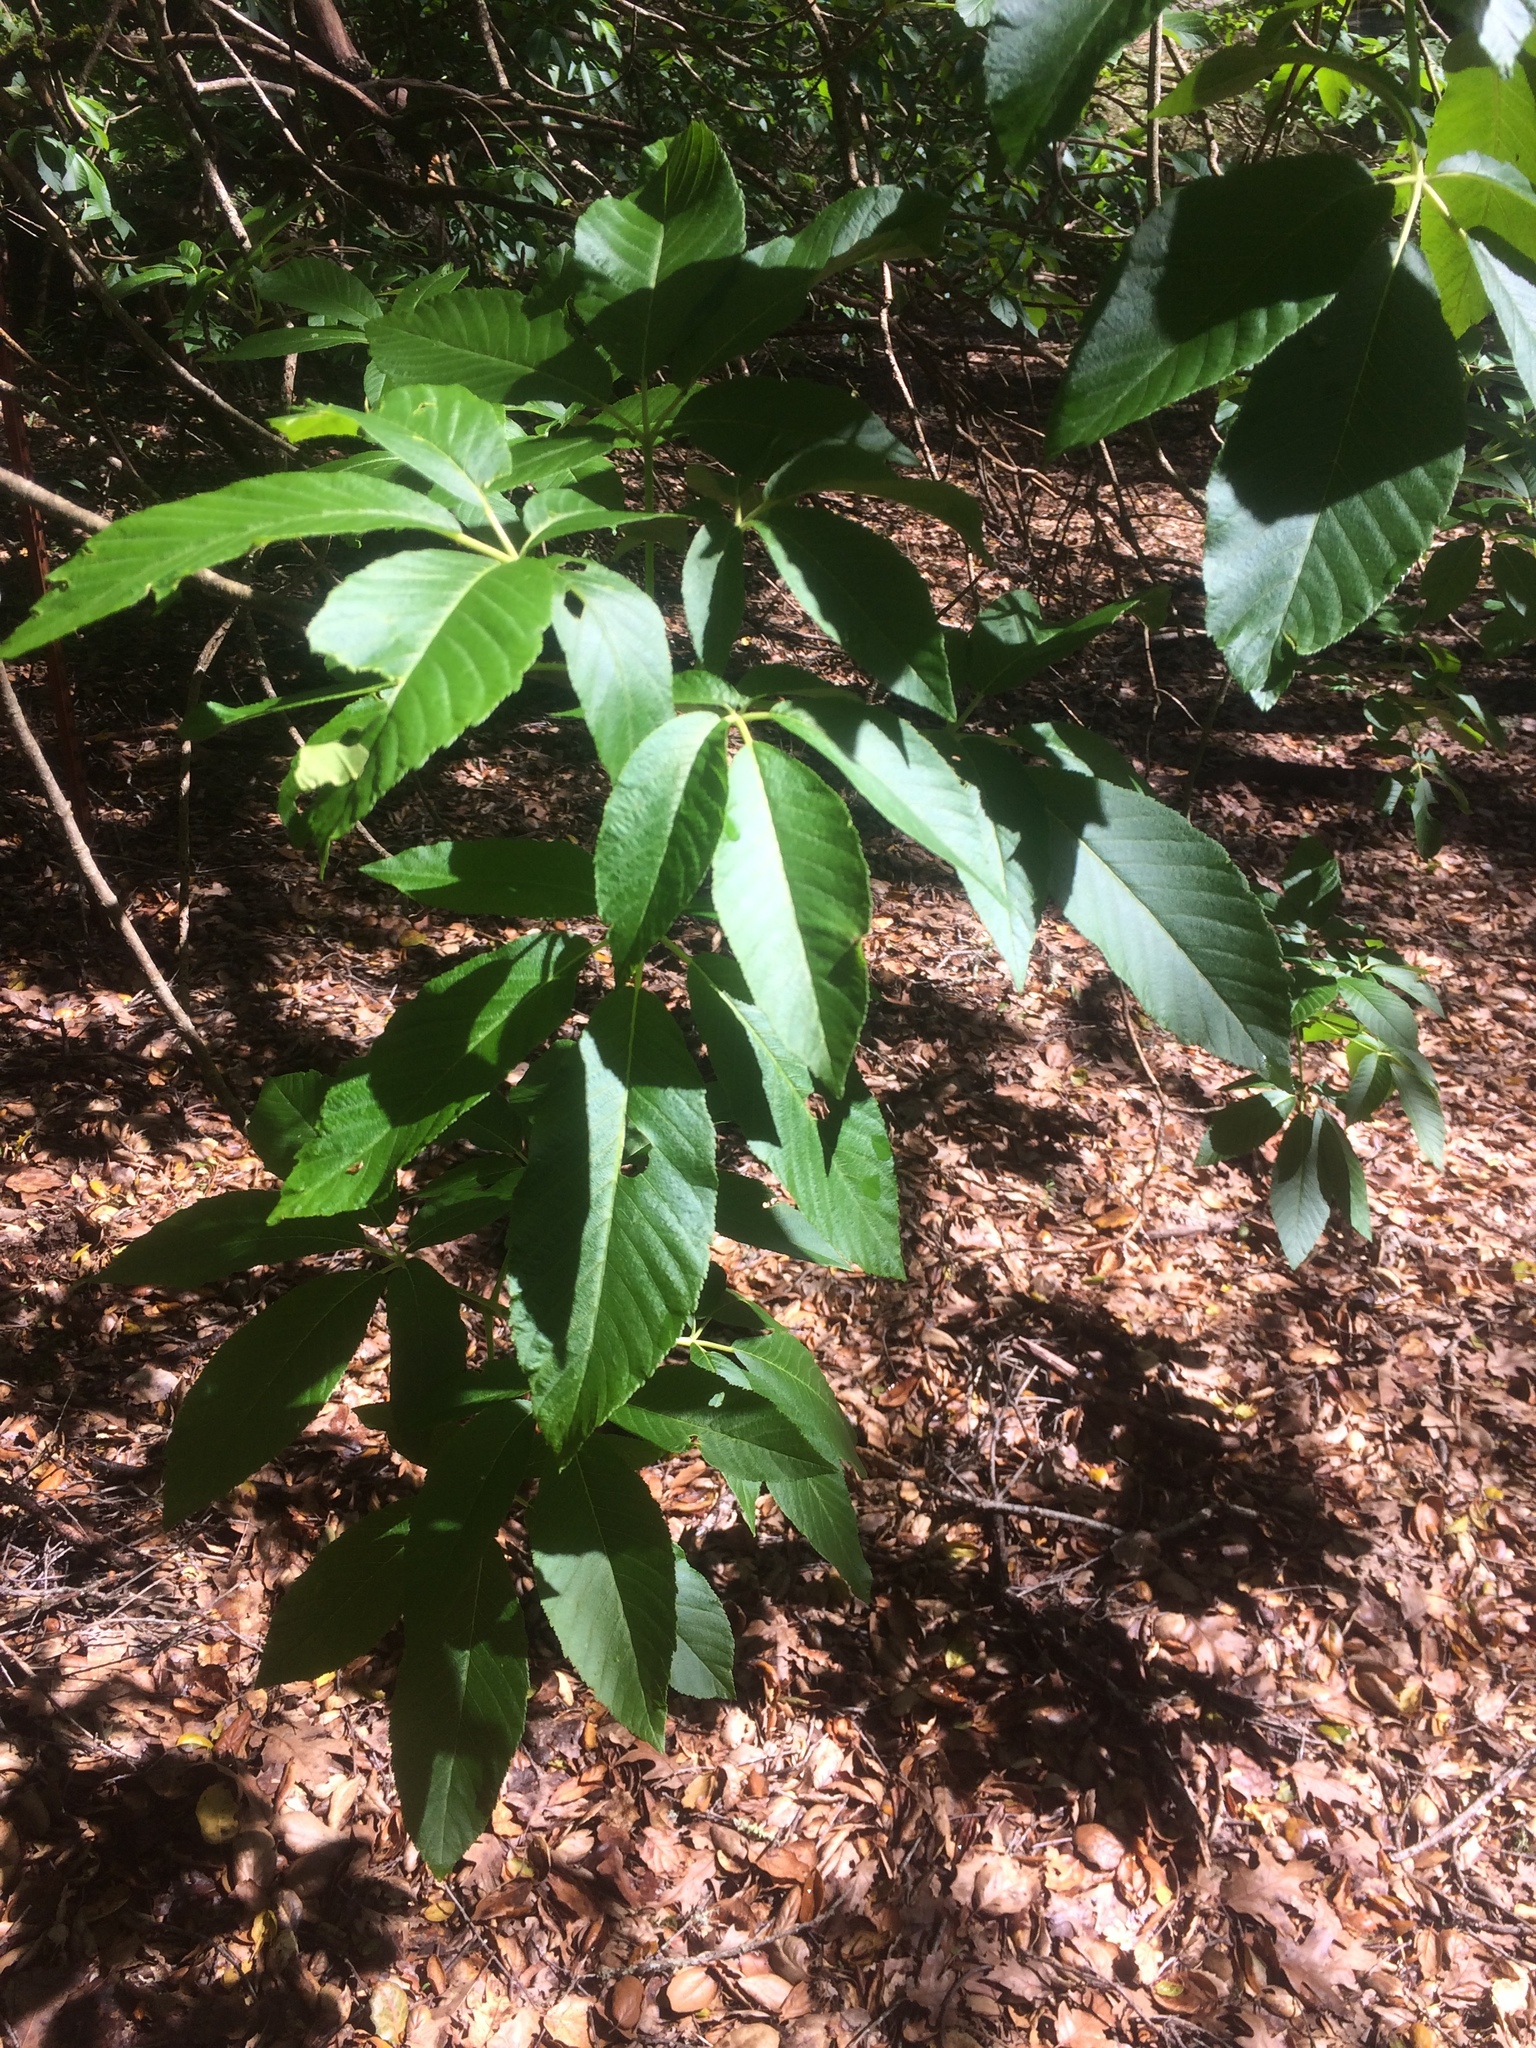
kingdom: Plantae
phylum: Tracheophyta
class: Magnoliopsida
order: Sapindales
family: Sapindaceae
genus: Aesculus
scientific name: Aesculus californica
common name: California buckeye
